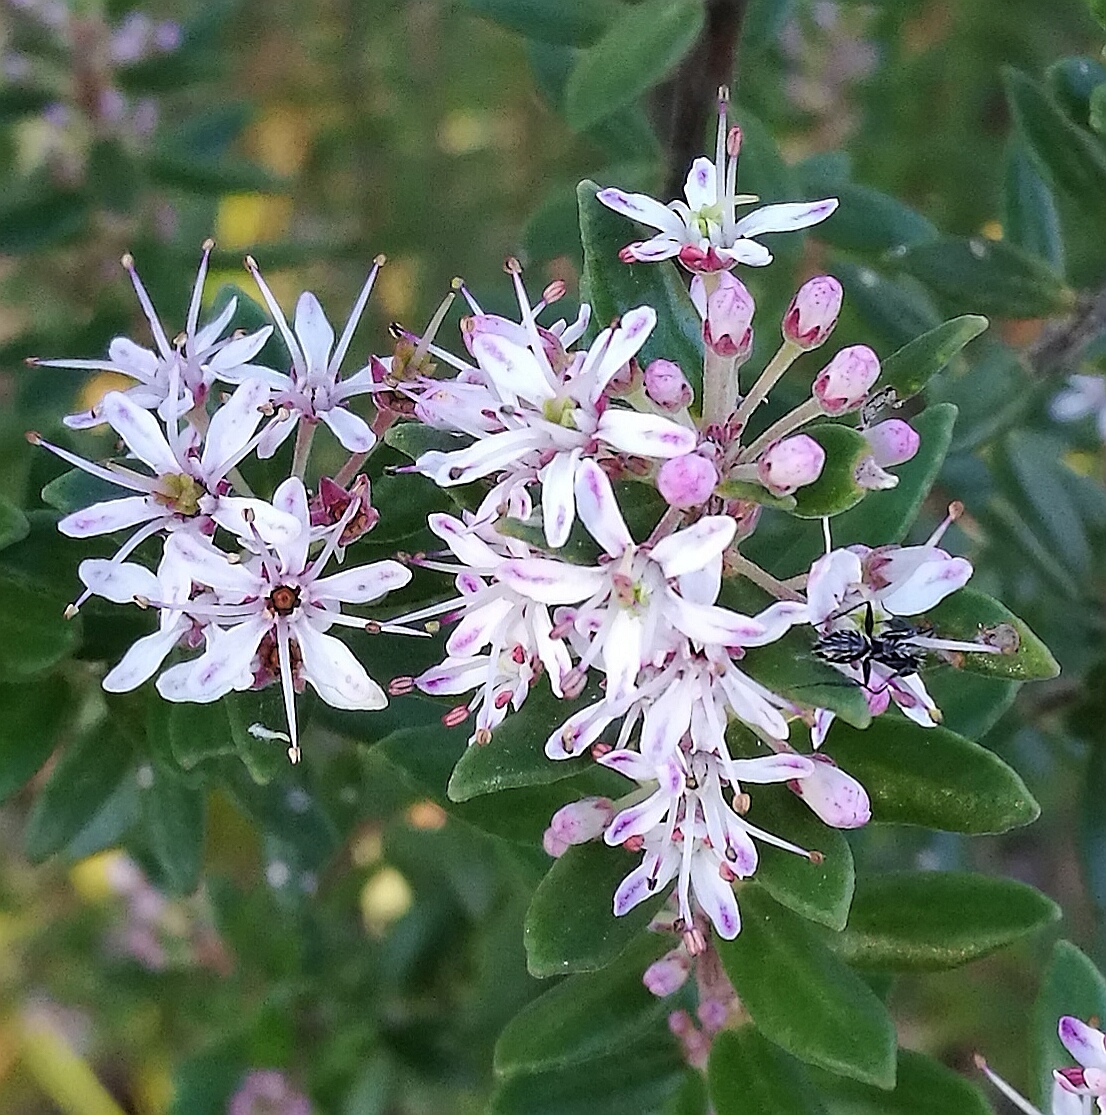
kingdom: Plantae
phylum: Tracheophyta
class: Magnoliopsida
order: Sapindales
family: Rutaceae
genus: Agathosma
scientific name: Agathosma ovata
